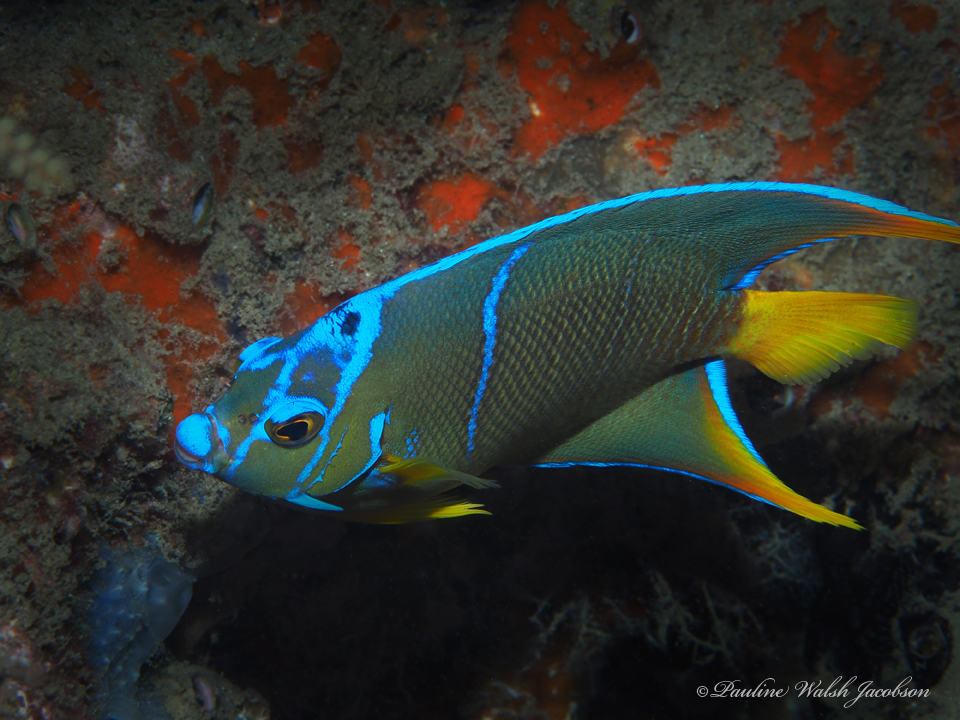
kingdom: Animalia
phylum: Chordata
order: Perciformes
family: Pomacanthidae
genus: Holacanthus
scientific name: Holacanthus ciliaris
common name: Queen angelfish
